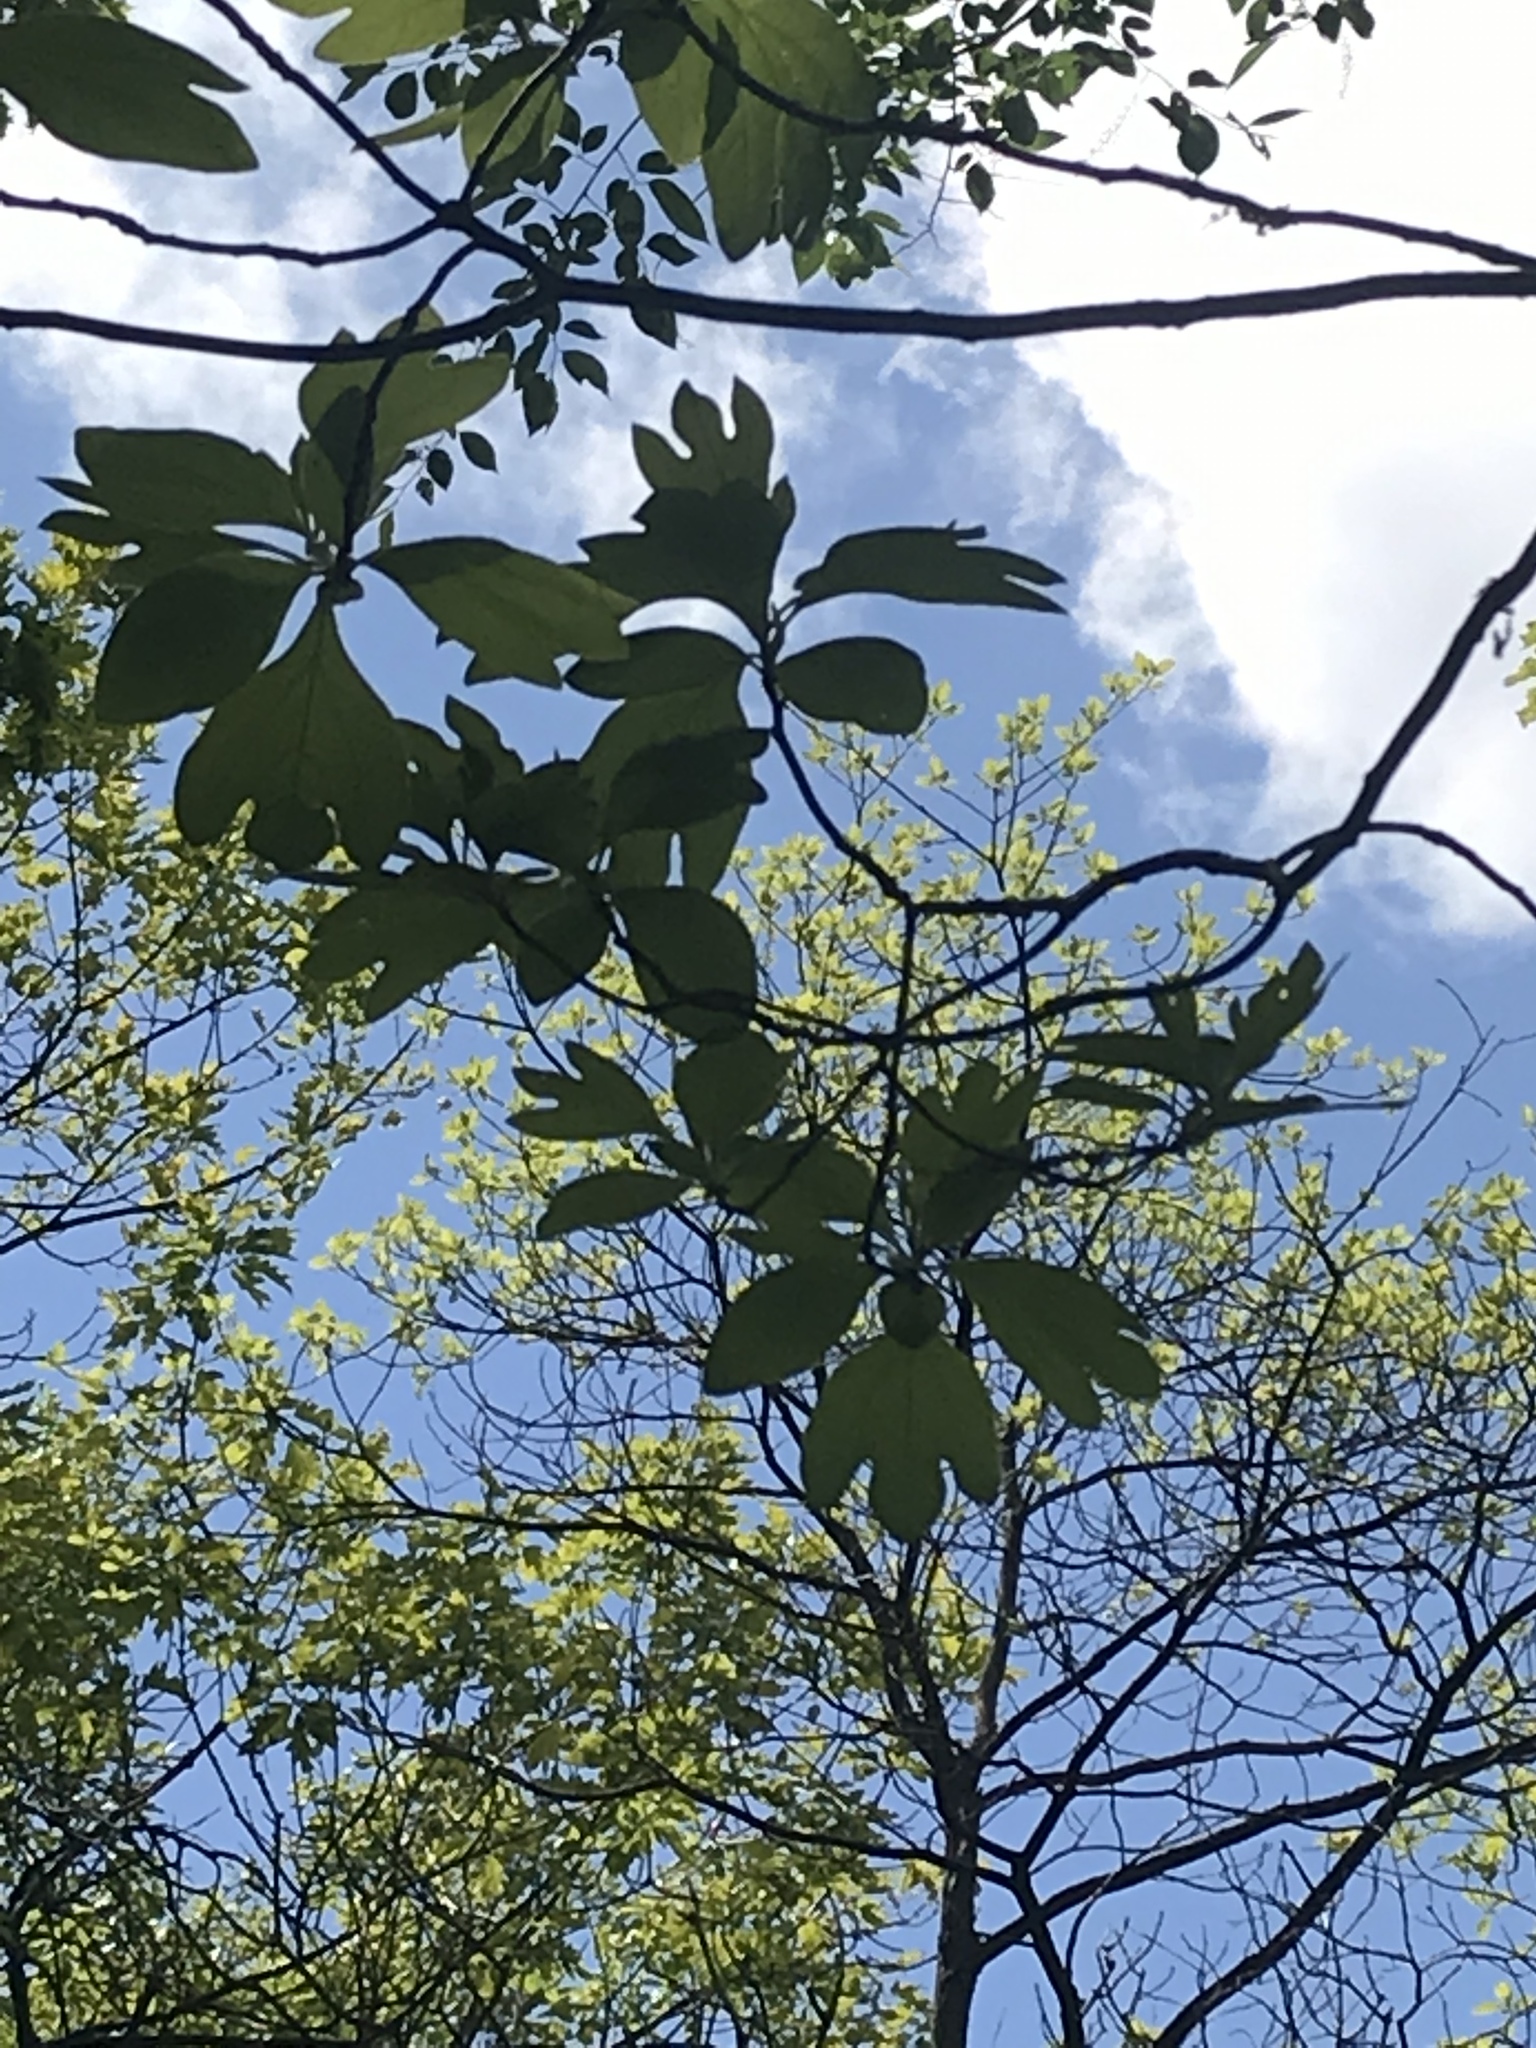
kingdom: Plantae
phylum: Tracheophyta
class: Magnoliopsida
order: Laurales
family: Lauraceae
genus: Sassafras
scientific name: Sassafras albidum
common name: Sassafras
